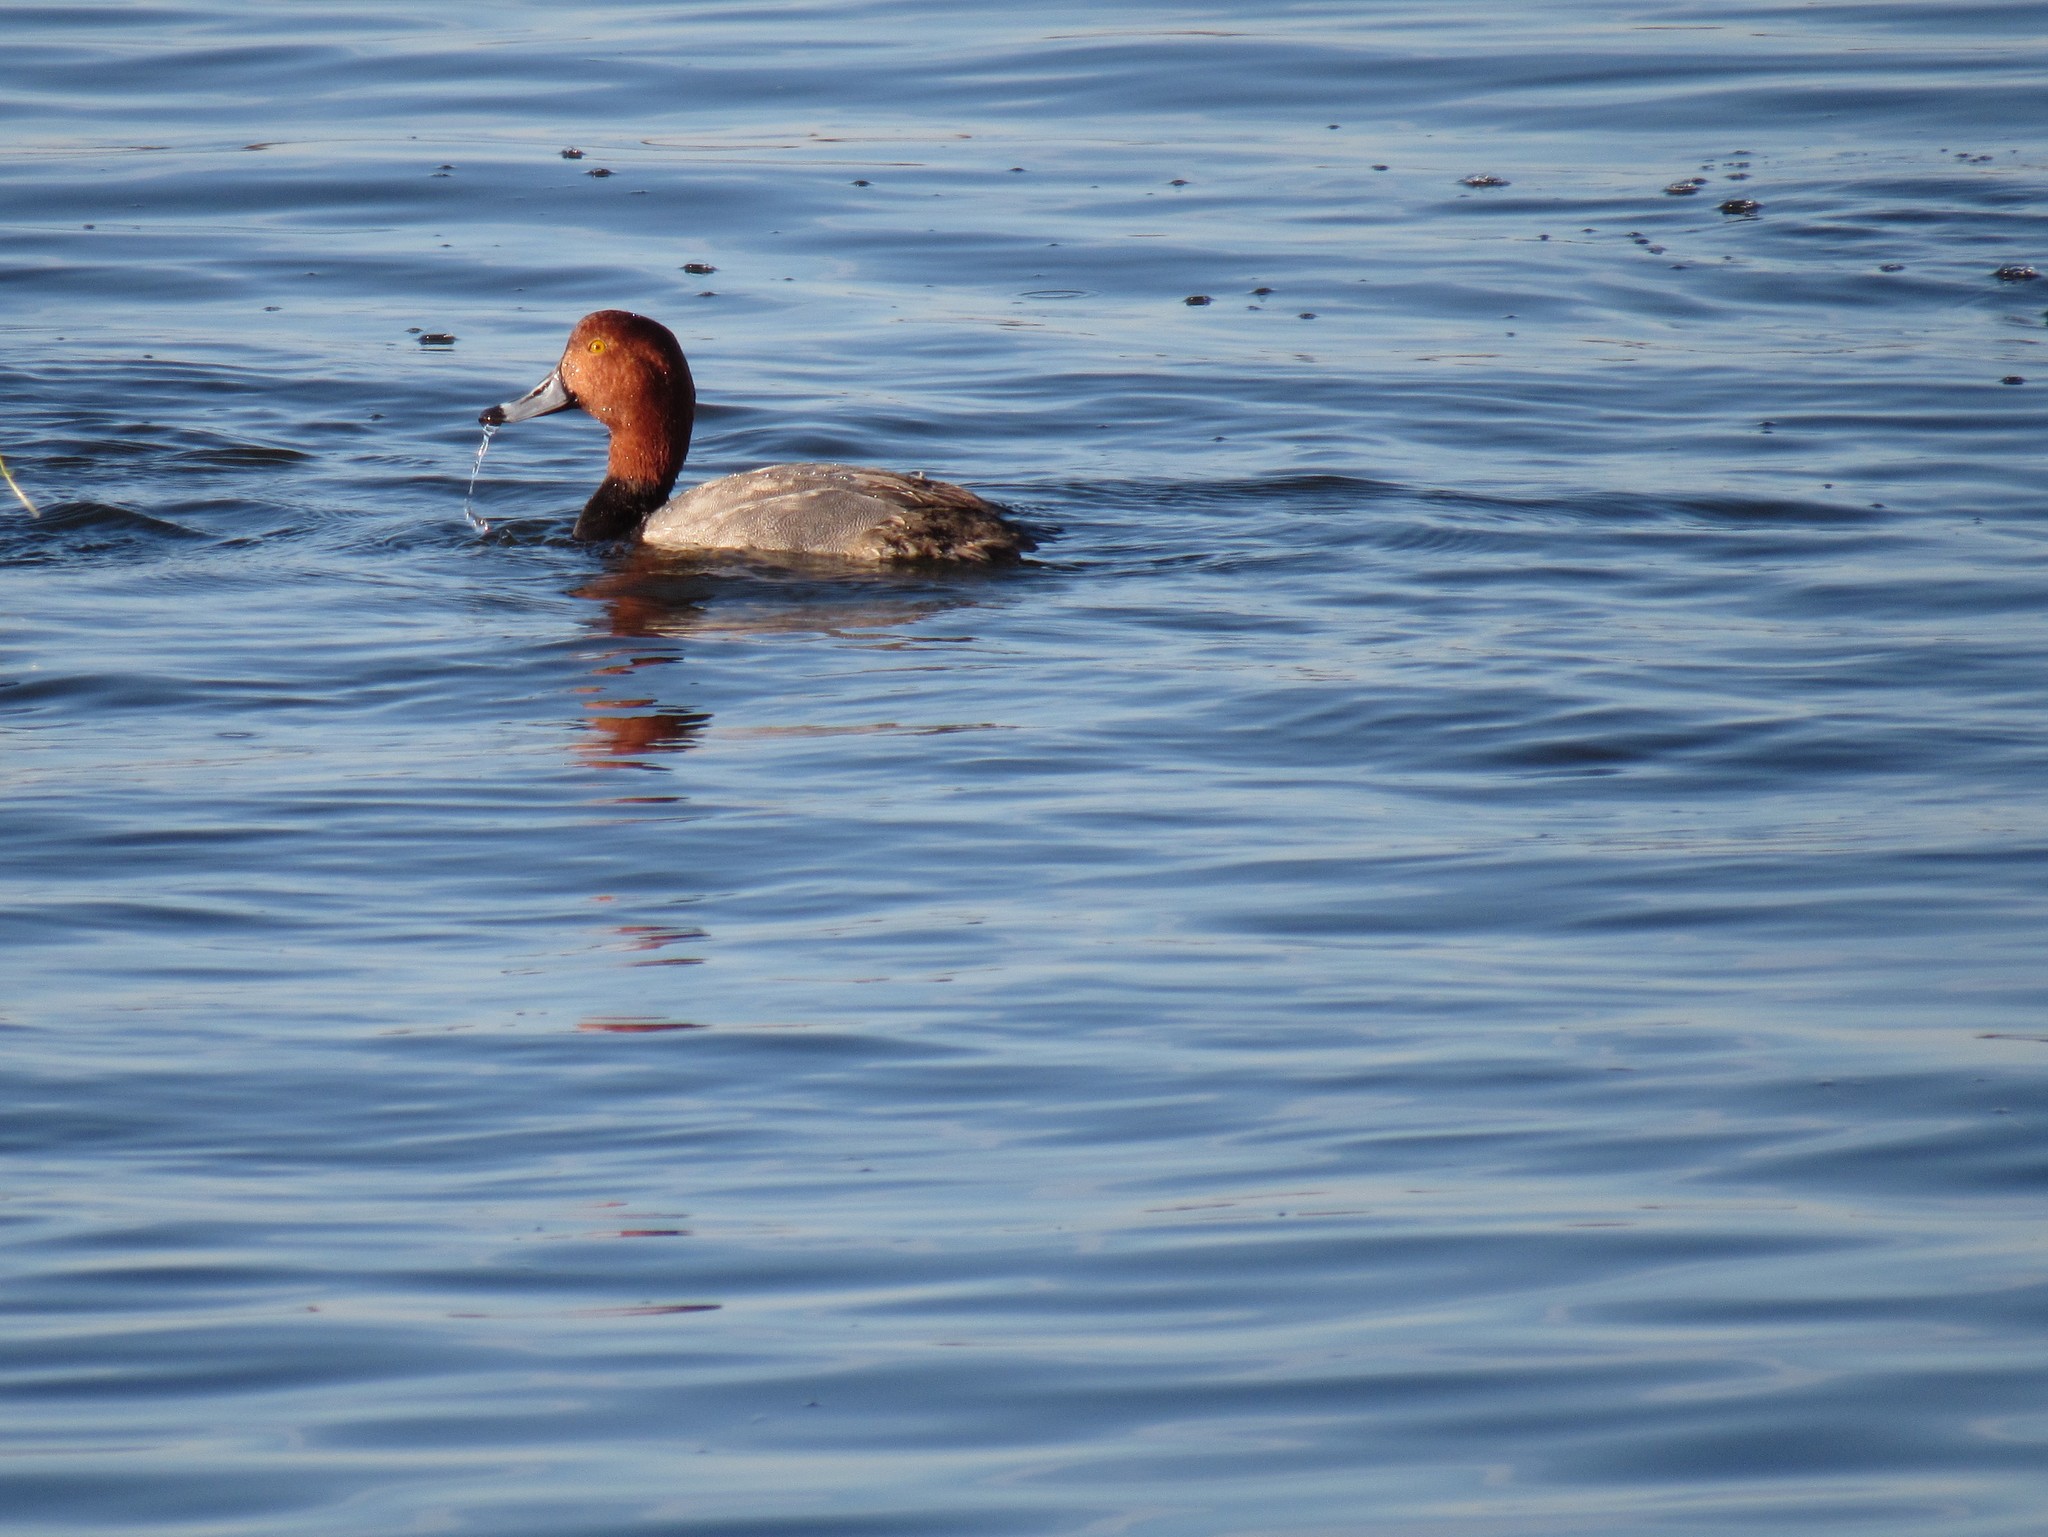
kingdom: Animalia
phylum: Chordata
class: Aves
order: Anseriformes
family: Anatidae
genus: Aythya
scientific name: Aythya americana
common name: Redhead
